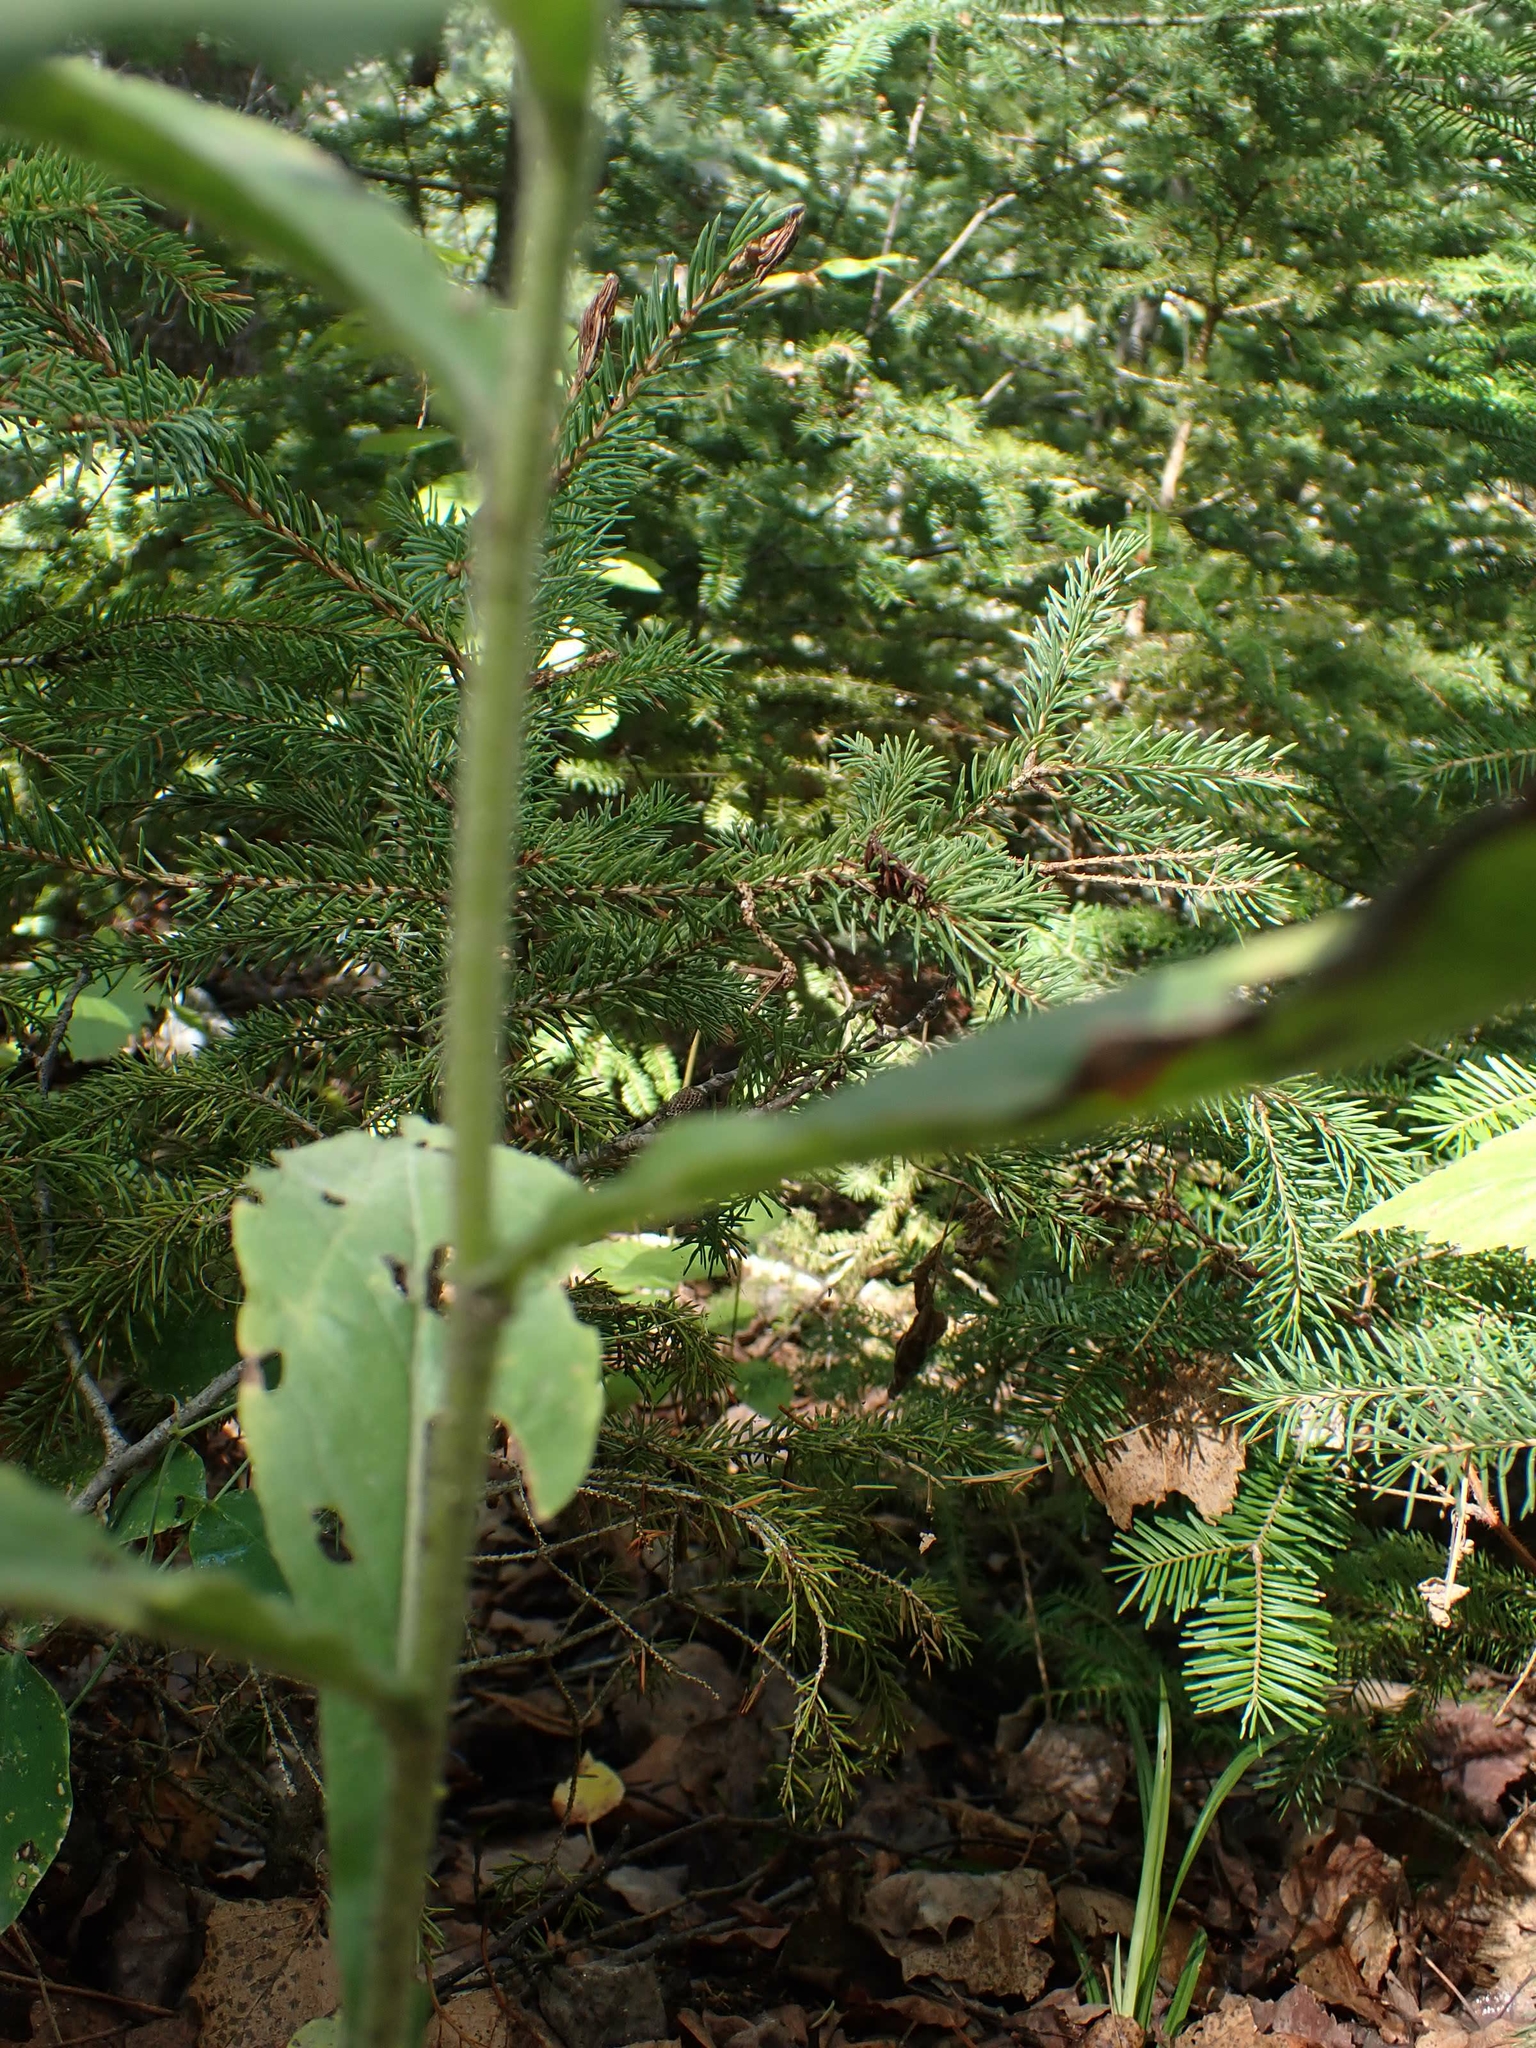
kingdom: Plantae
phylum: Tracheophyta
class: Magnoliopsida
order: Asterales
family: Asteraceae
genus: Solidago
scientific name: Solidago hispida
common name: Hairy goldenrod
